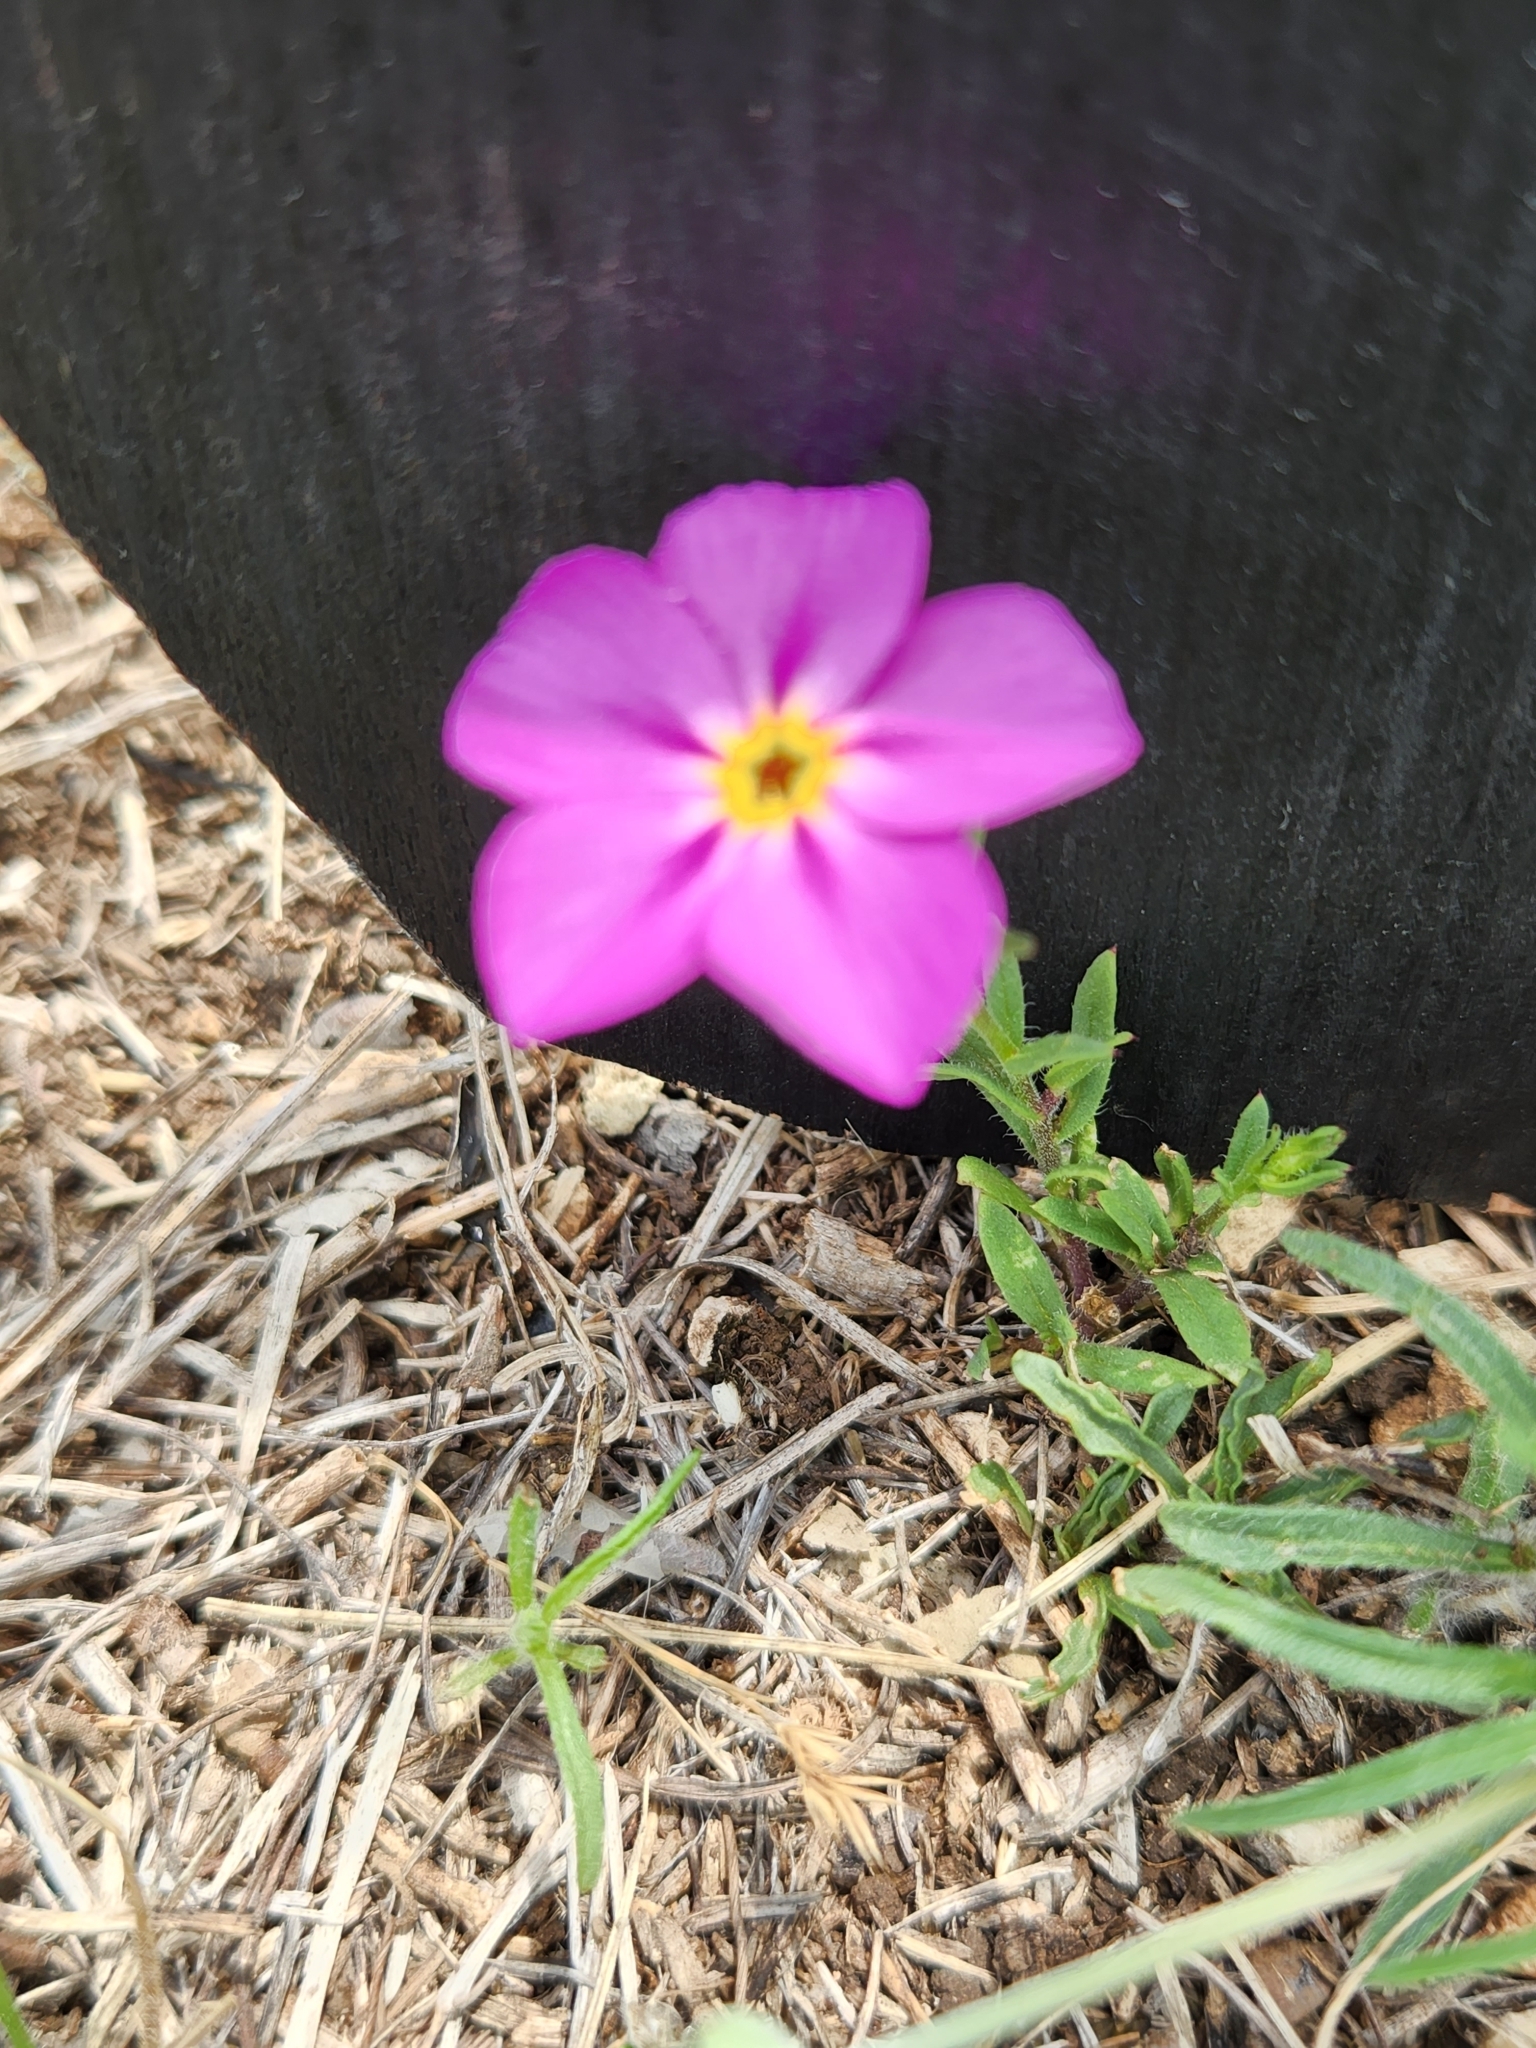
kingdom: Plantae
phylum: Tracheophyta
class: Magnoliopsida
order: Ericales
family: Polemoniaceae
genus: Phlox
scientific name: Phlox roemeriana
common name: Roemer's phlox
